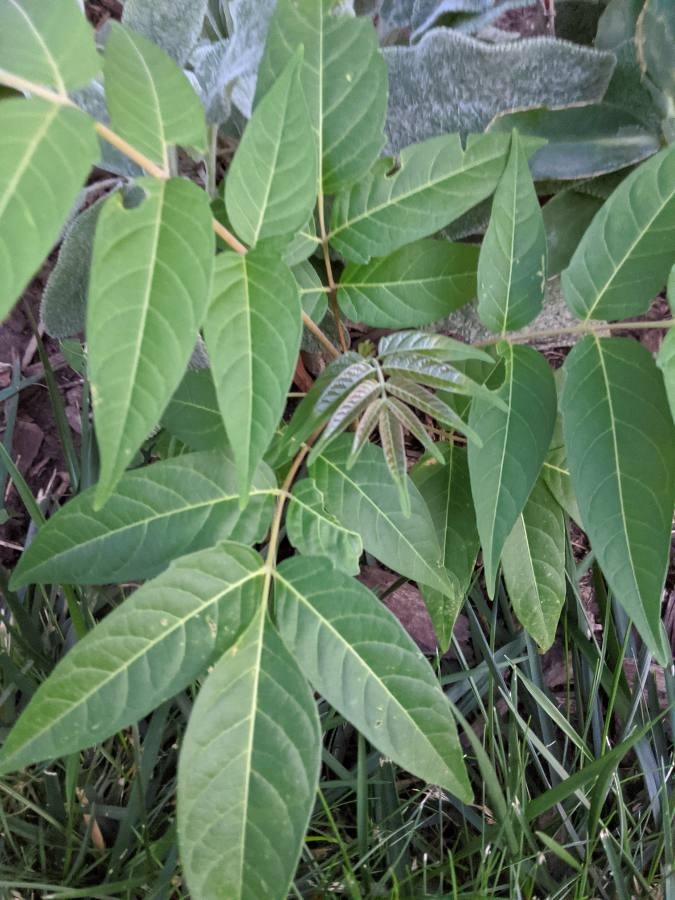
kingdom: Plantae
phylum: Tracheophyta
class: Magnoliopsida
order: Sapindales
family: Simaroubaceae
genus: Ailanthus
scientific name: Ailanthus altissima
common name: Tree-of-heaven
